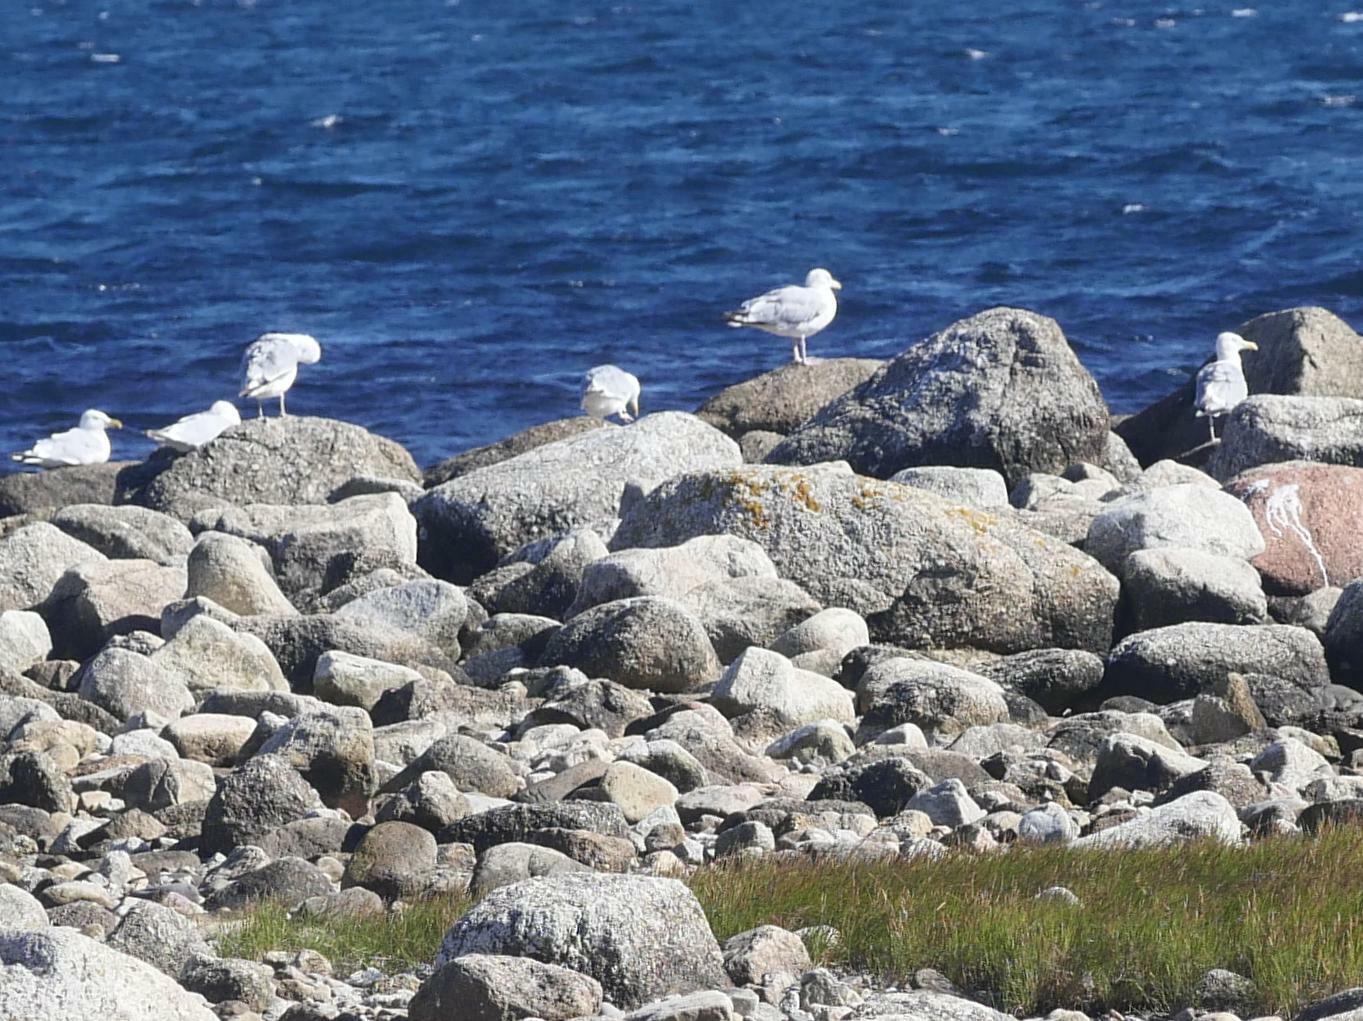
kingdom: Animalia
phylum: Chordata
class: Aves
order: Charadriiformes
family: Laridae
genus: Larus
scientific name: Larus argentatus
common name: Herring gull
